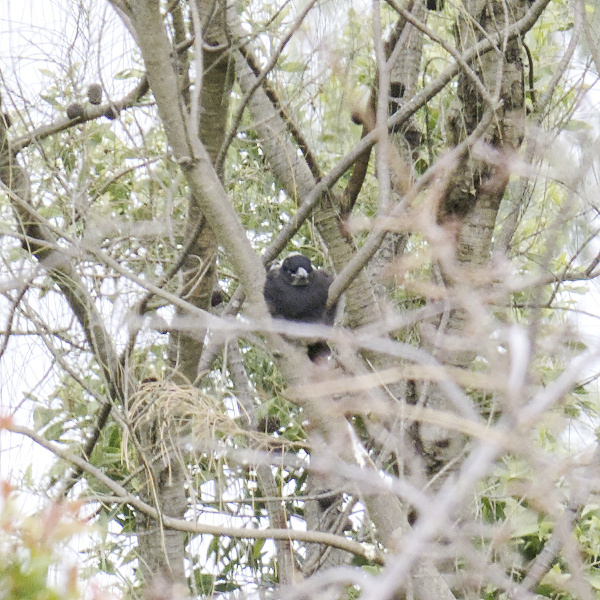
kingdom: Animalia
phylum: Chordata
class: Aves
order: Passeriformes
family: Cracticidae
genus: Gymnorhina
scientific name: Gymnorhina tibicen
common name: Australian magpie
